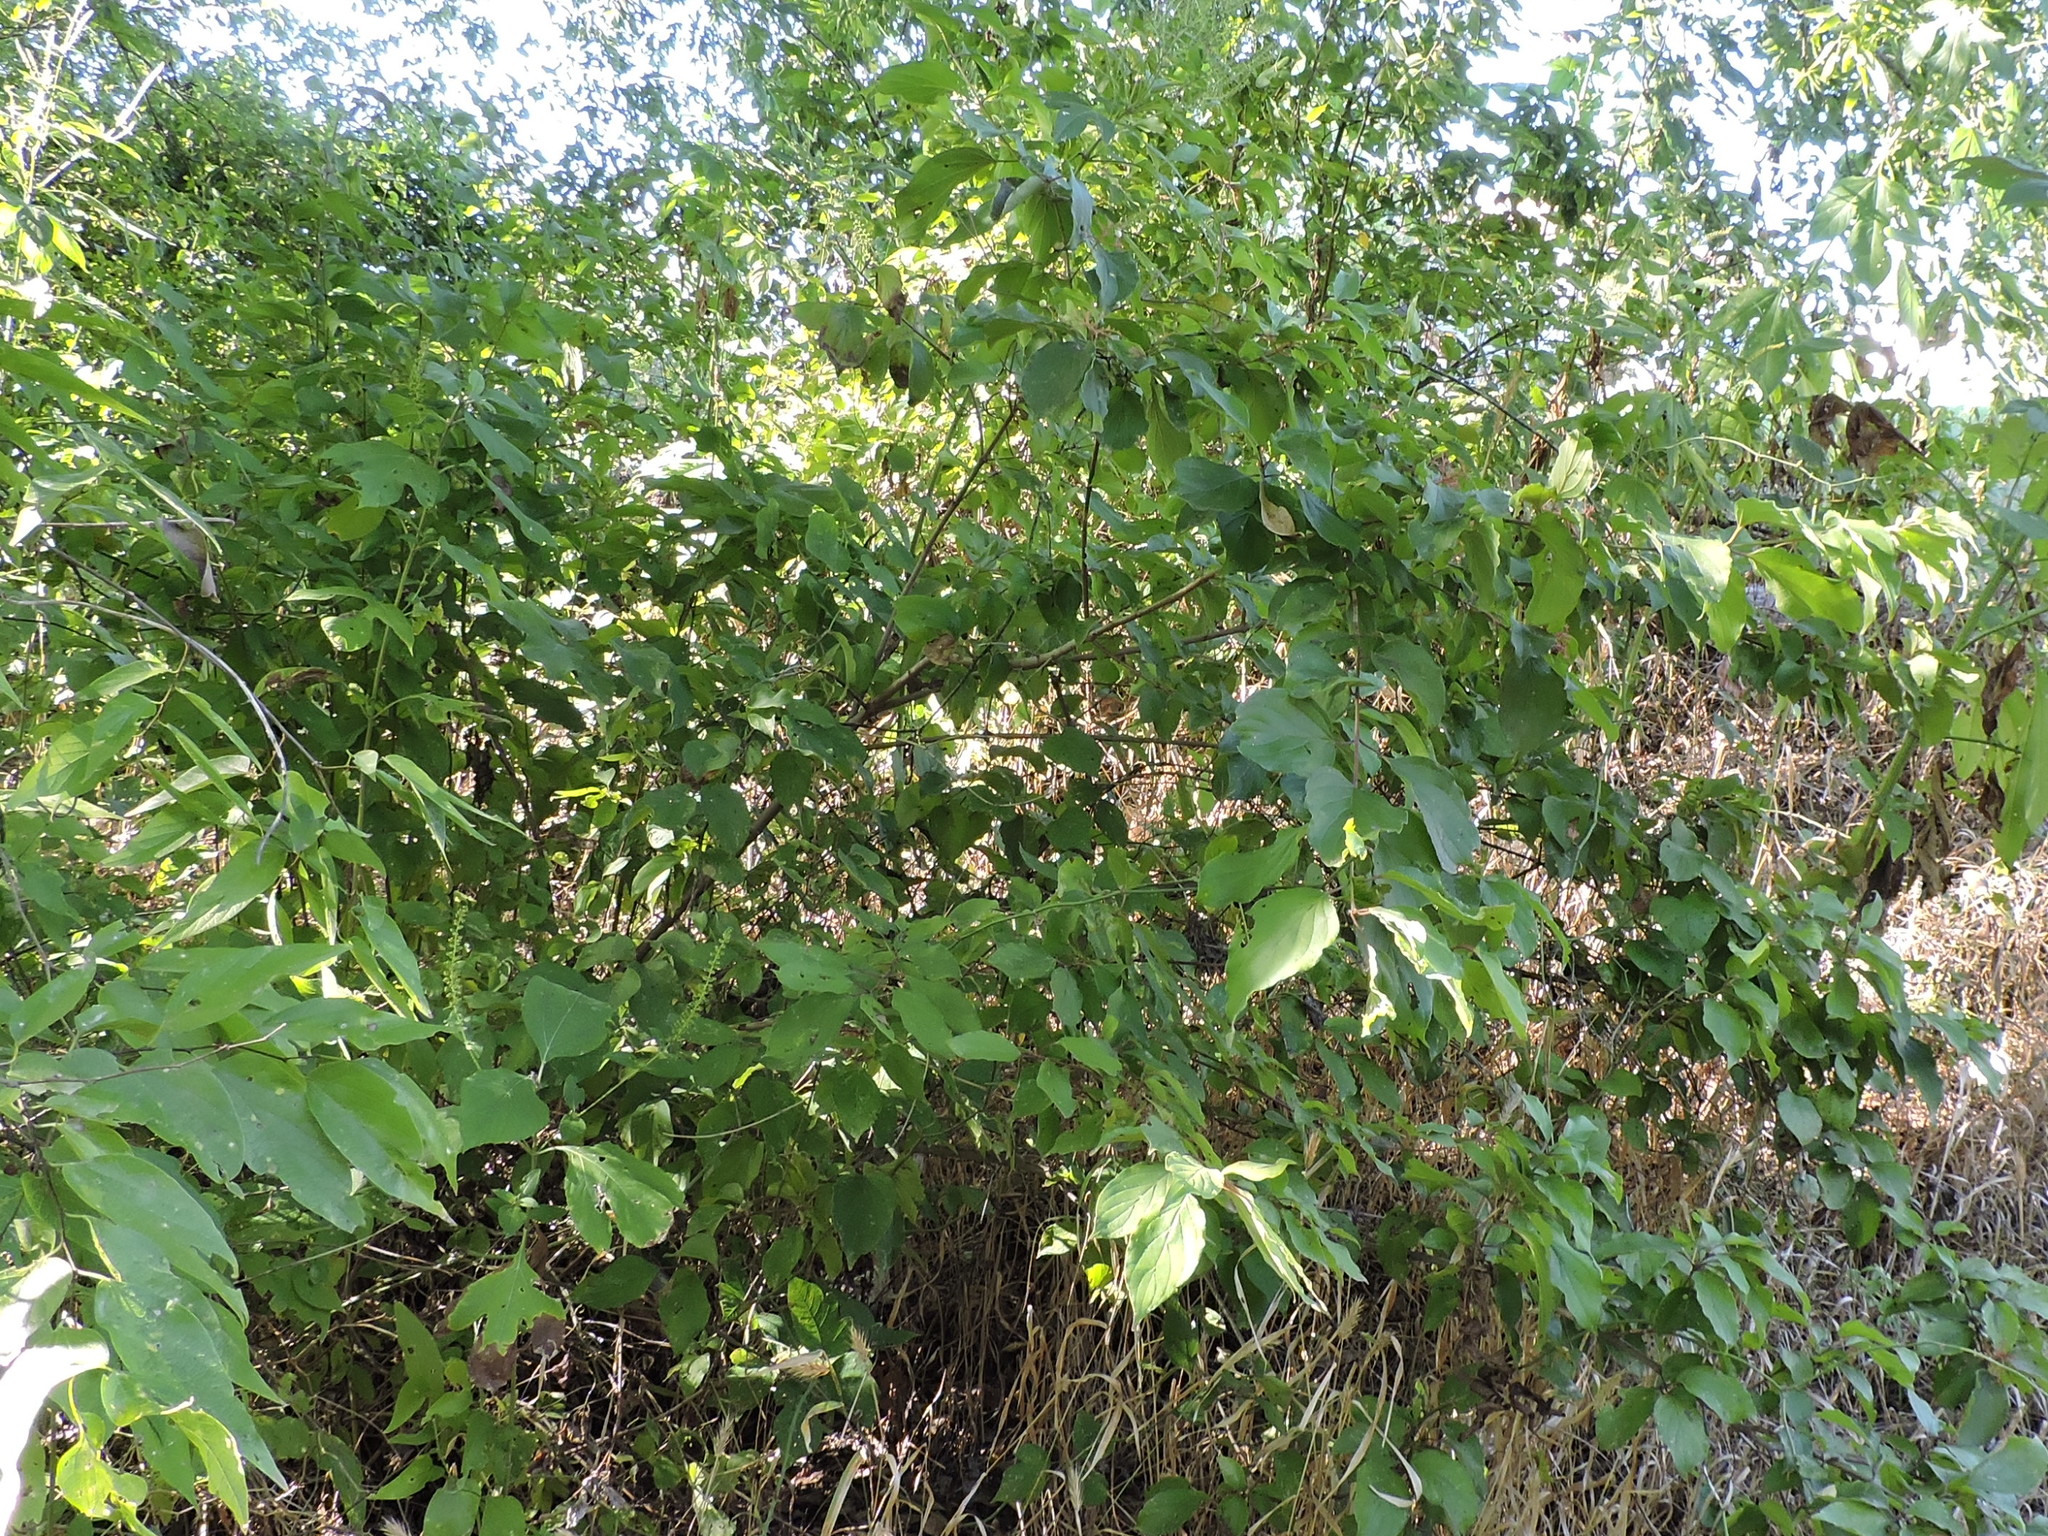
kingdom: Plantae
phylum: Tracheophyta
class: Magnoliopsida
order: Cornales
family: Cornaceae
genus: Cornus
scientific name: Cornus drummondii
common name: Rough-leaf dogwood
